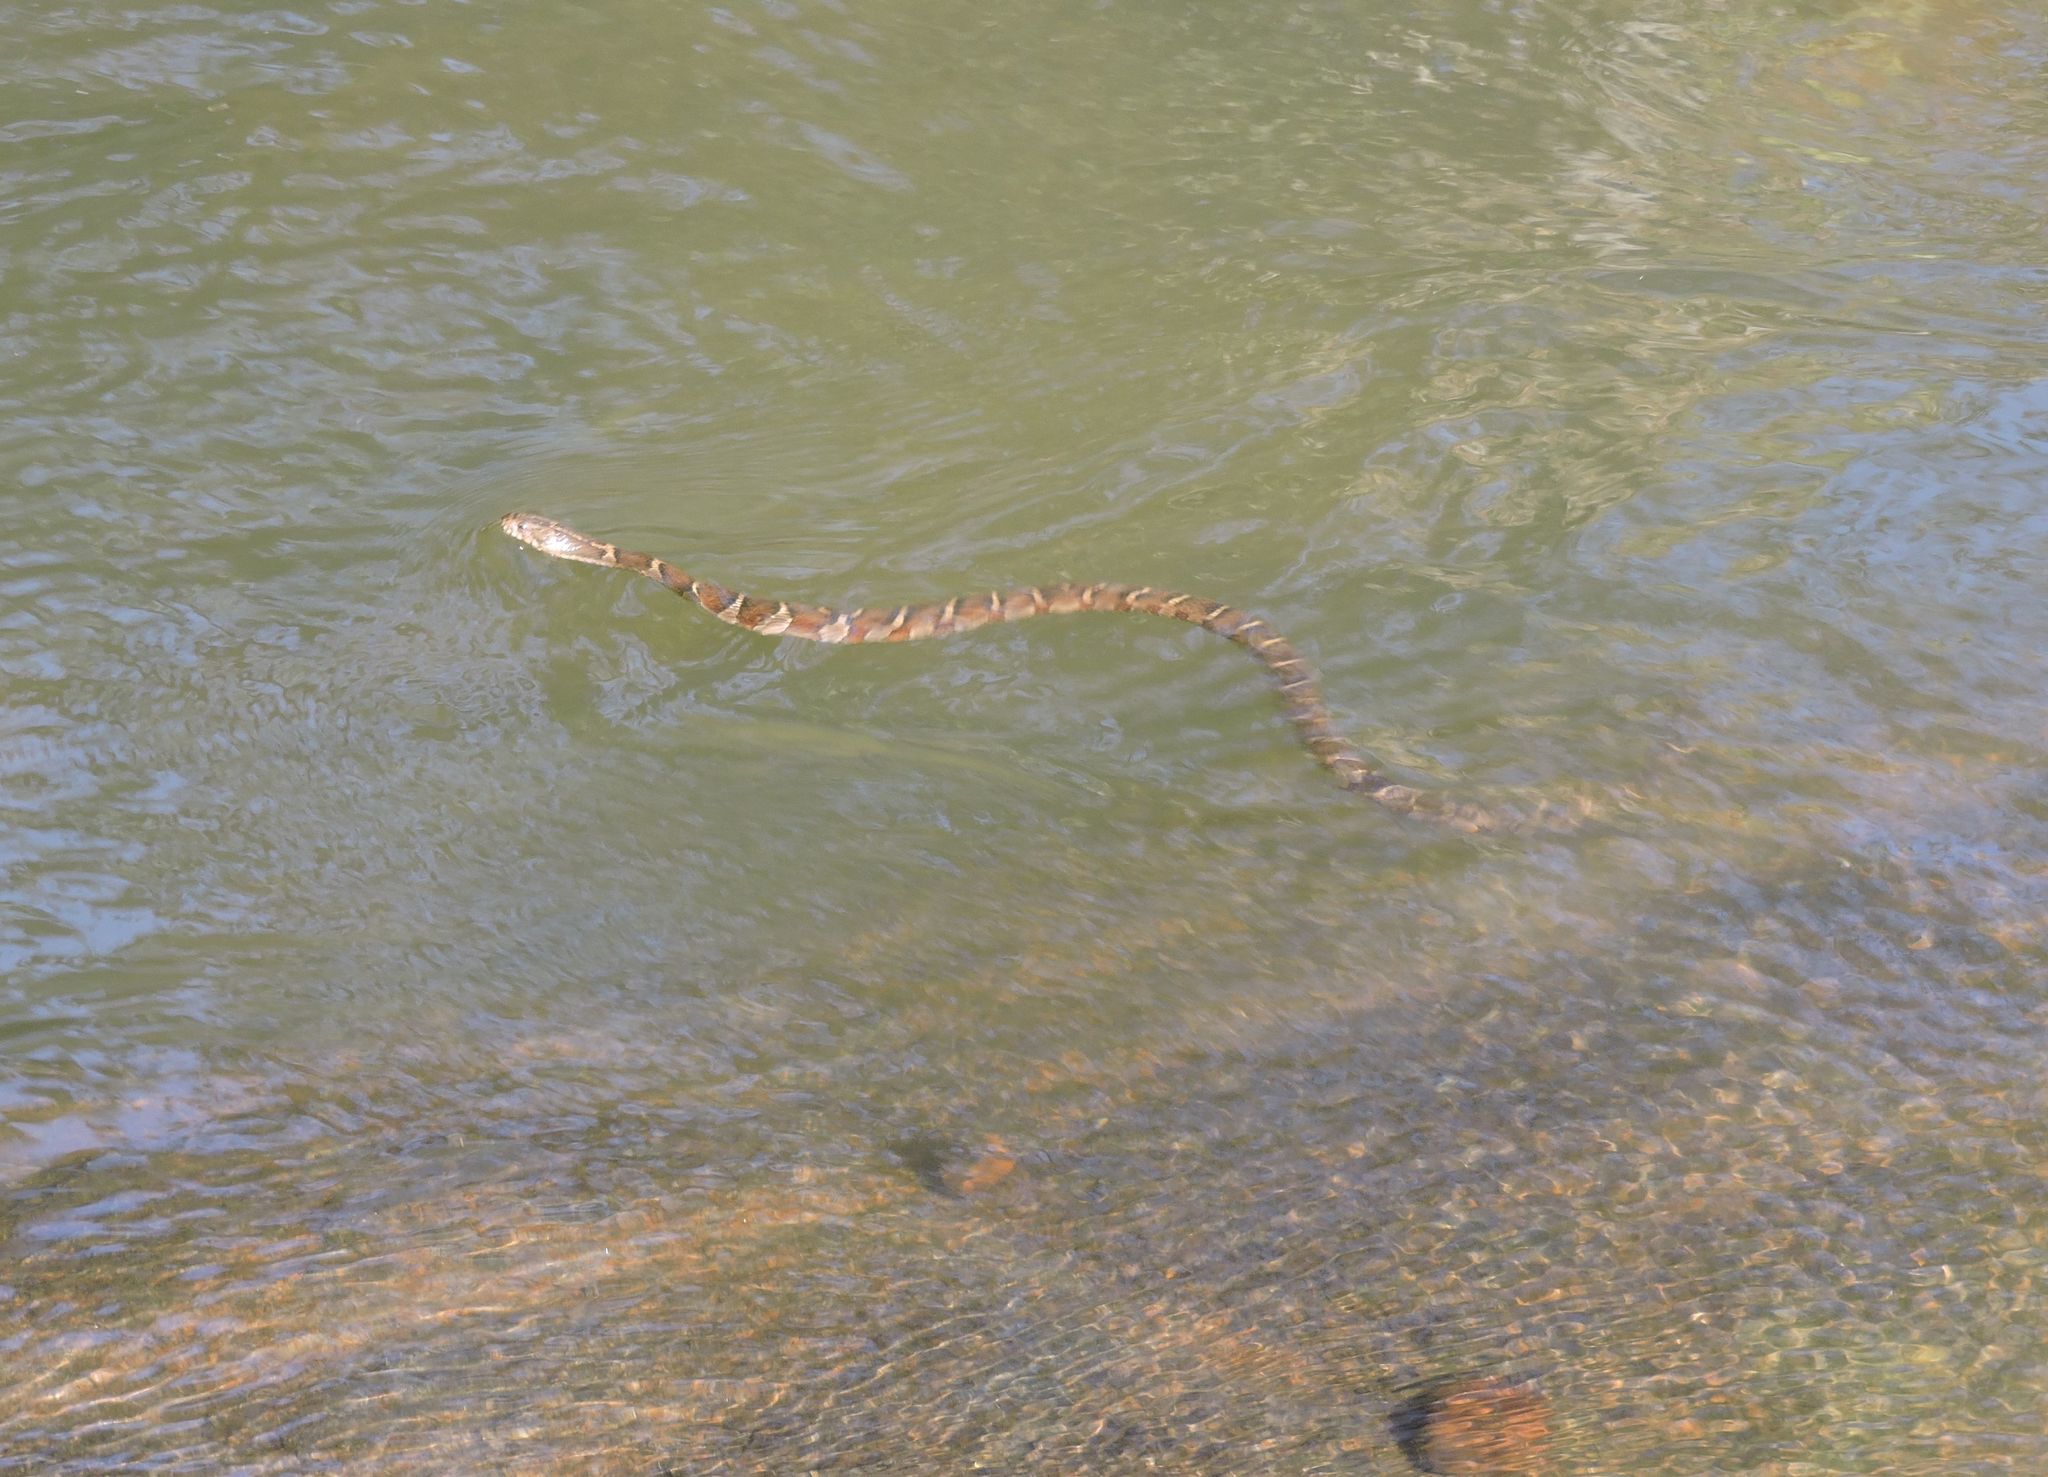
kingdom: Animalia
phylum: Chordata
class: Squamata
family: Colubridae
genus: Nerodia
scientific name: Nerodia sipedon
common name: Northern water snake
